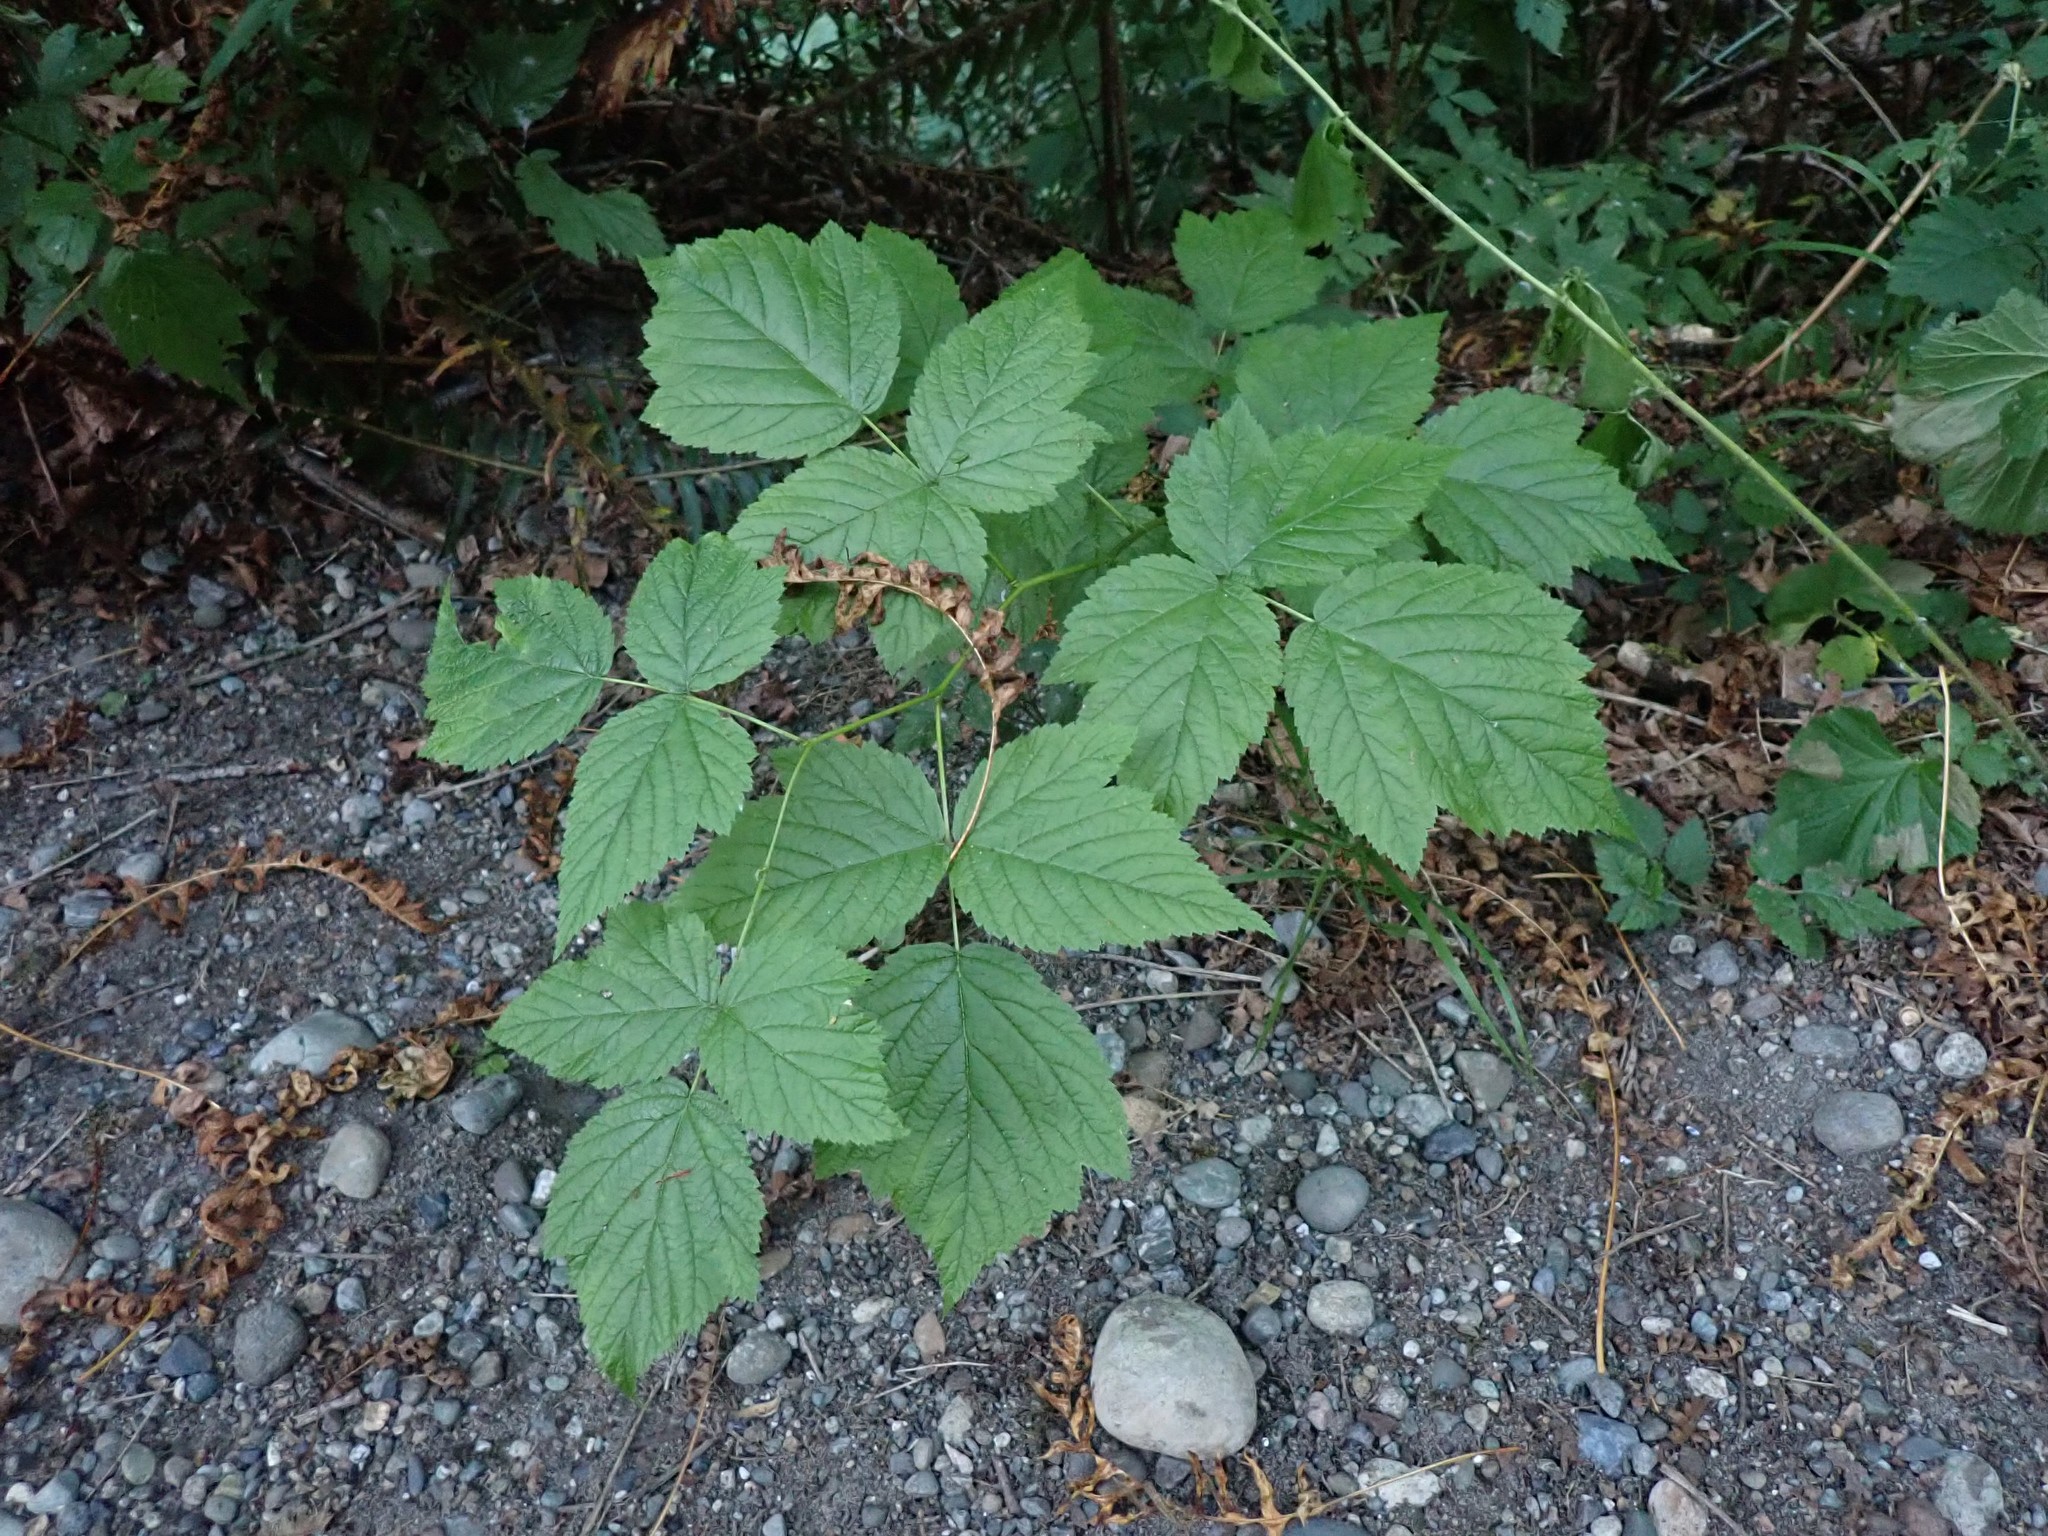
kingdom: Plantae
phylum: Tracheophyta
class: Magnoliopsida
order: Rosales
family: Rosaceae
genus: Rubus
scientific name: Rubus spectabilis
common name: Salmonberry
